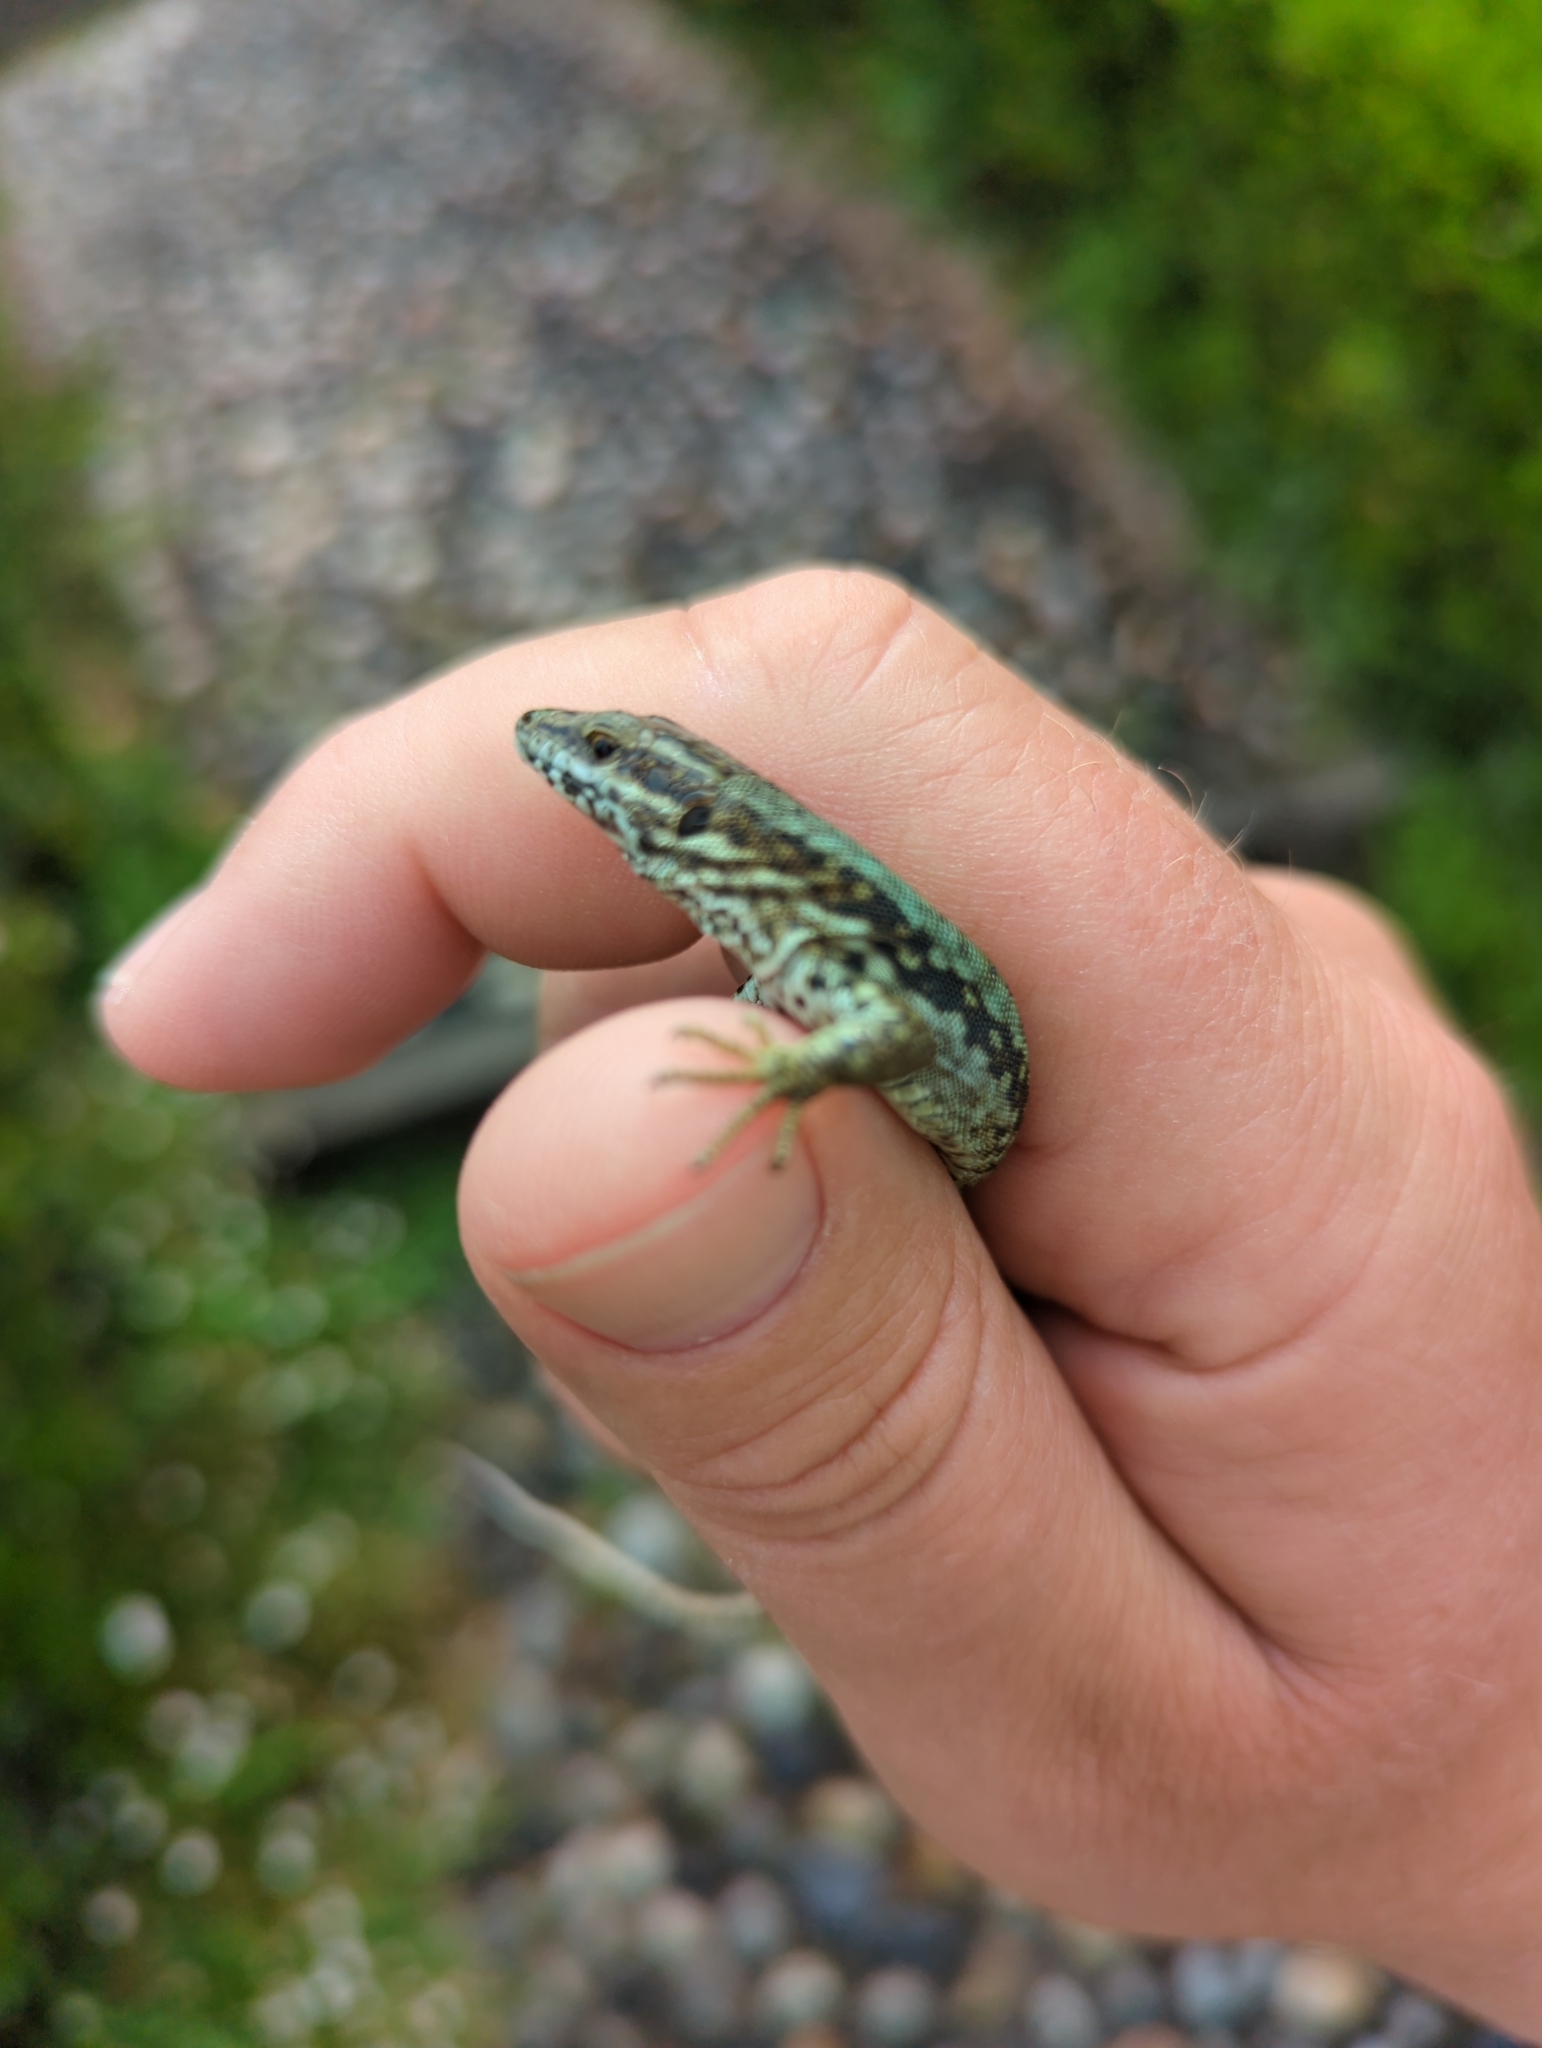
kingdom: Animalia
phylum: Chordata
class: Squamata
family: Lacertidae
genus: Podarcis
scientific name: Podarcis muralis
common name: Common wall lizard
